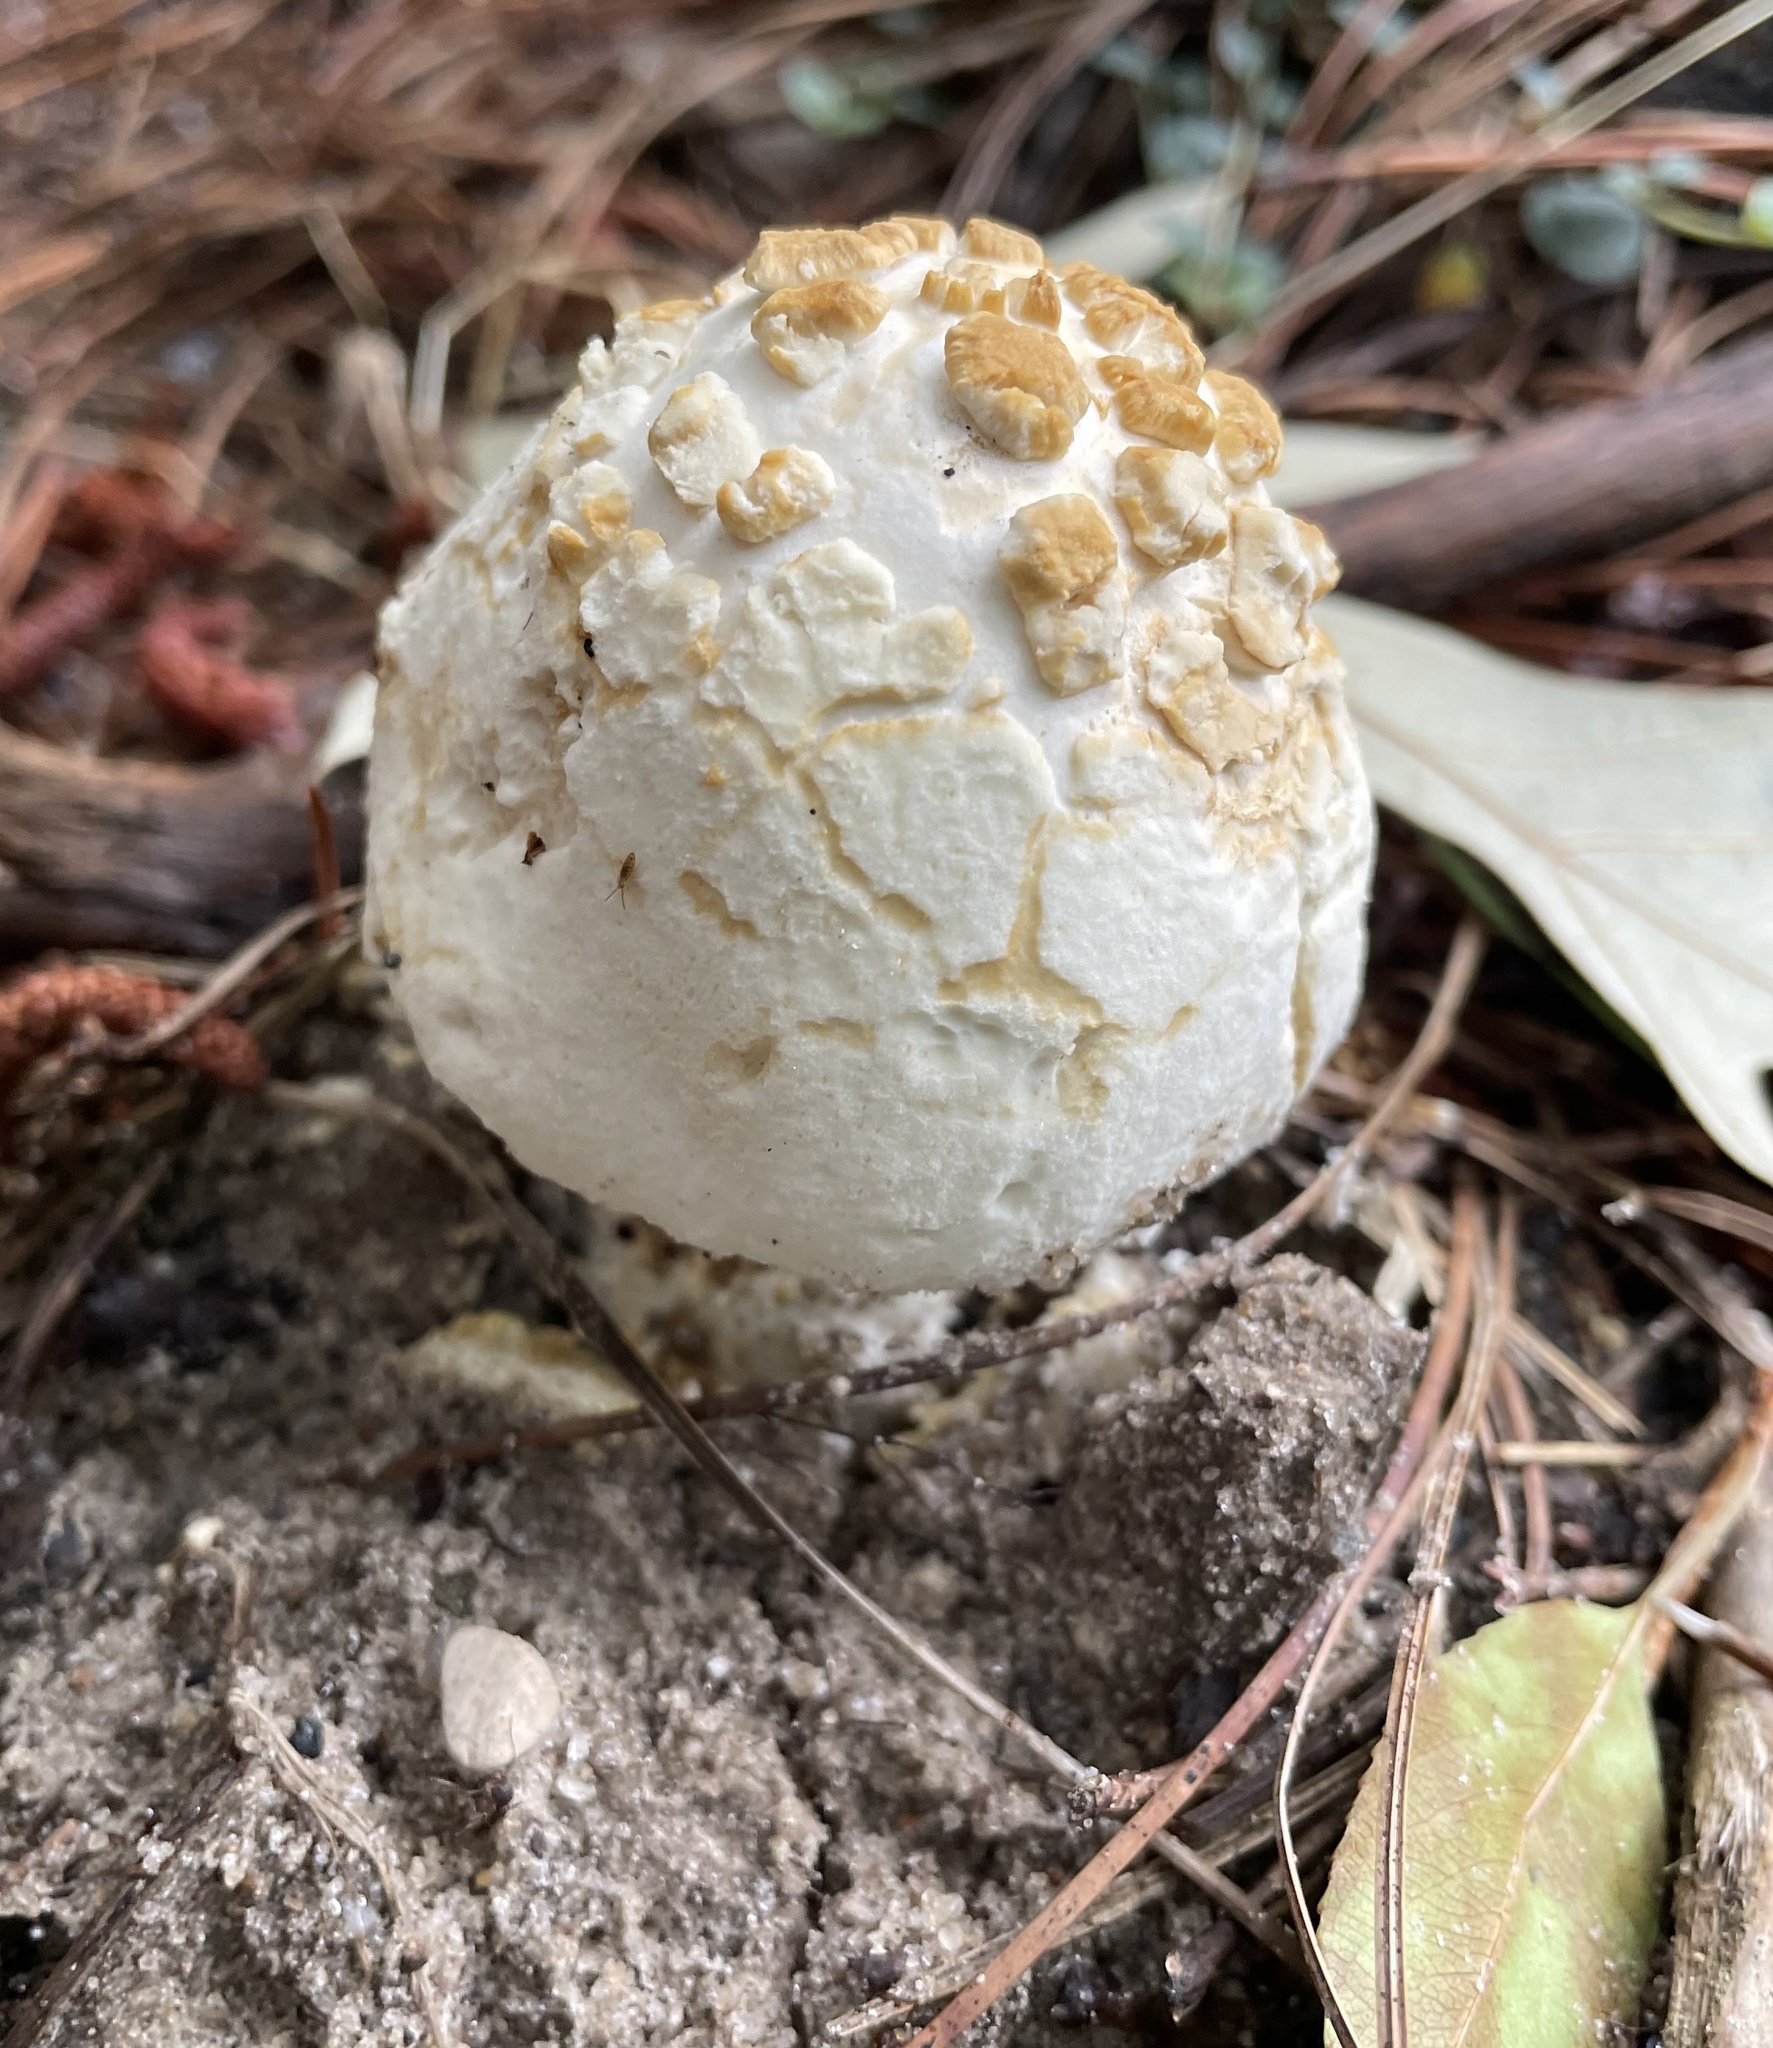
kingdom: Fungi
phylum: Basidiomycota
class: Agaricomycetes
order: Agaricales
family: Amanitaceae
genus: Amanita
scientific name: Amanita
